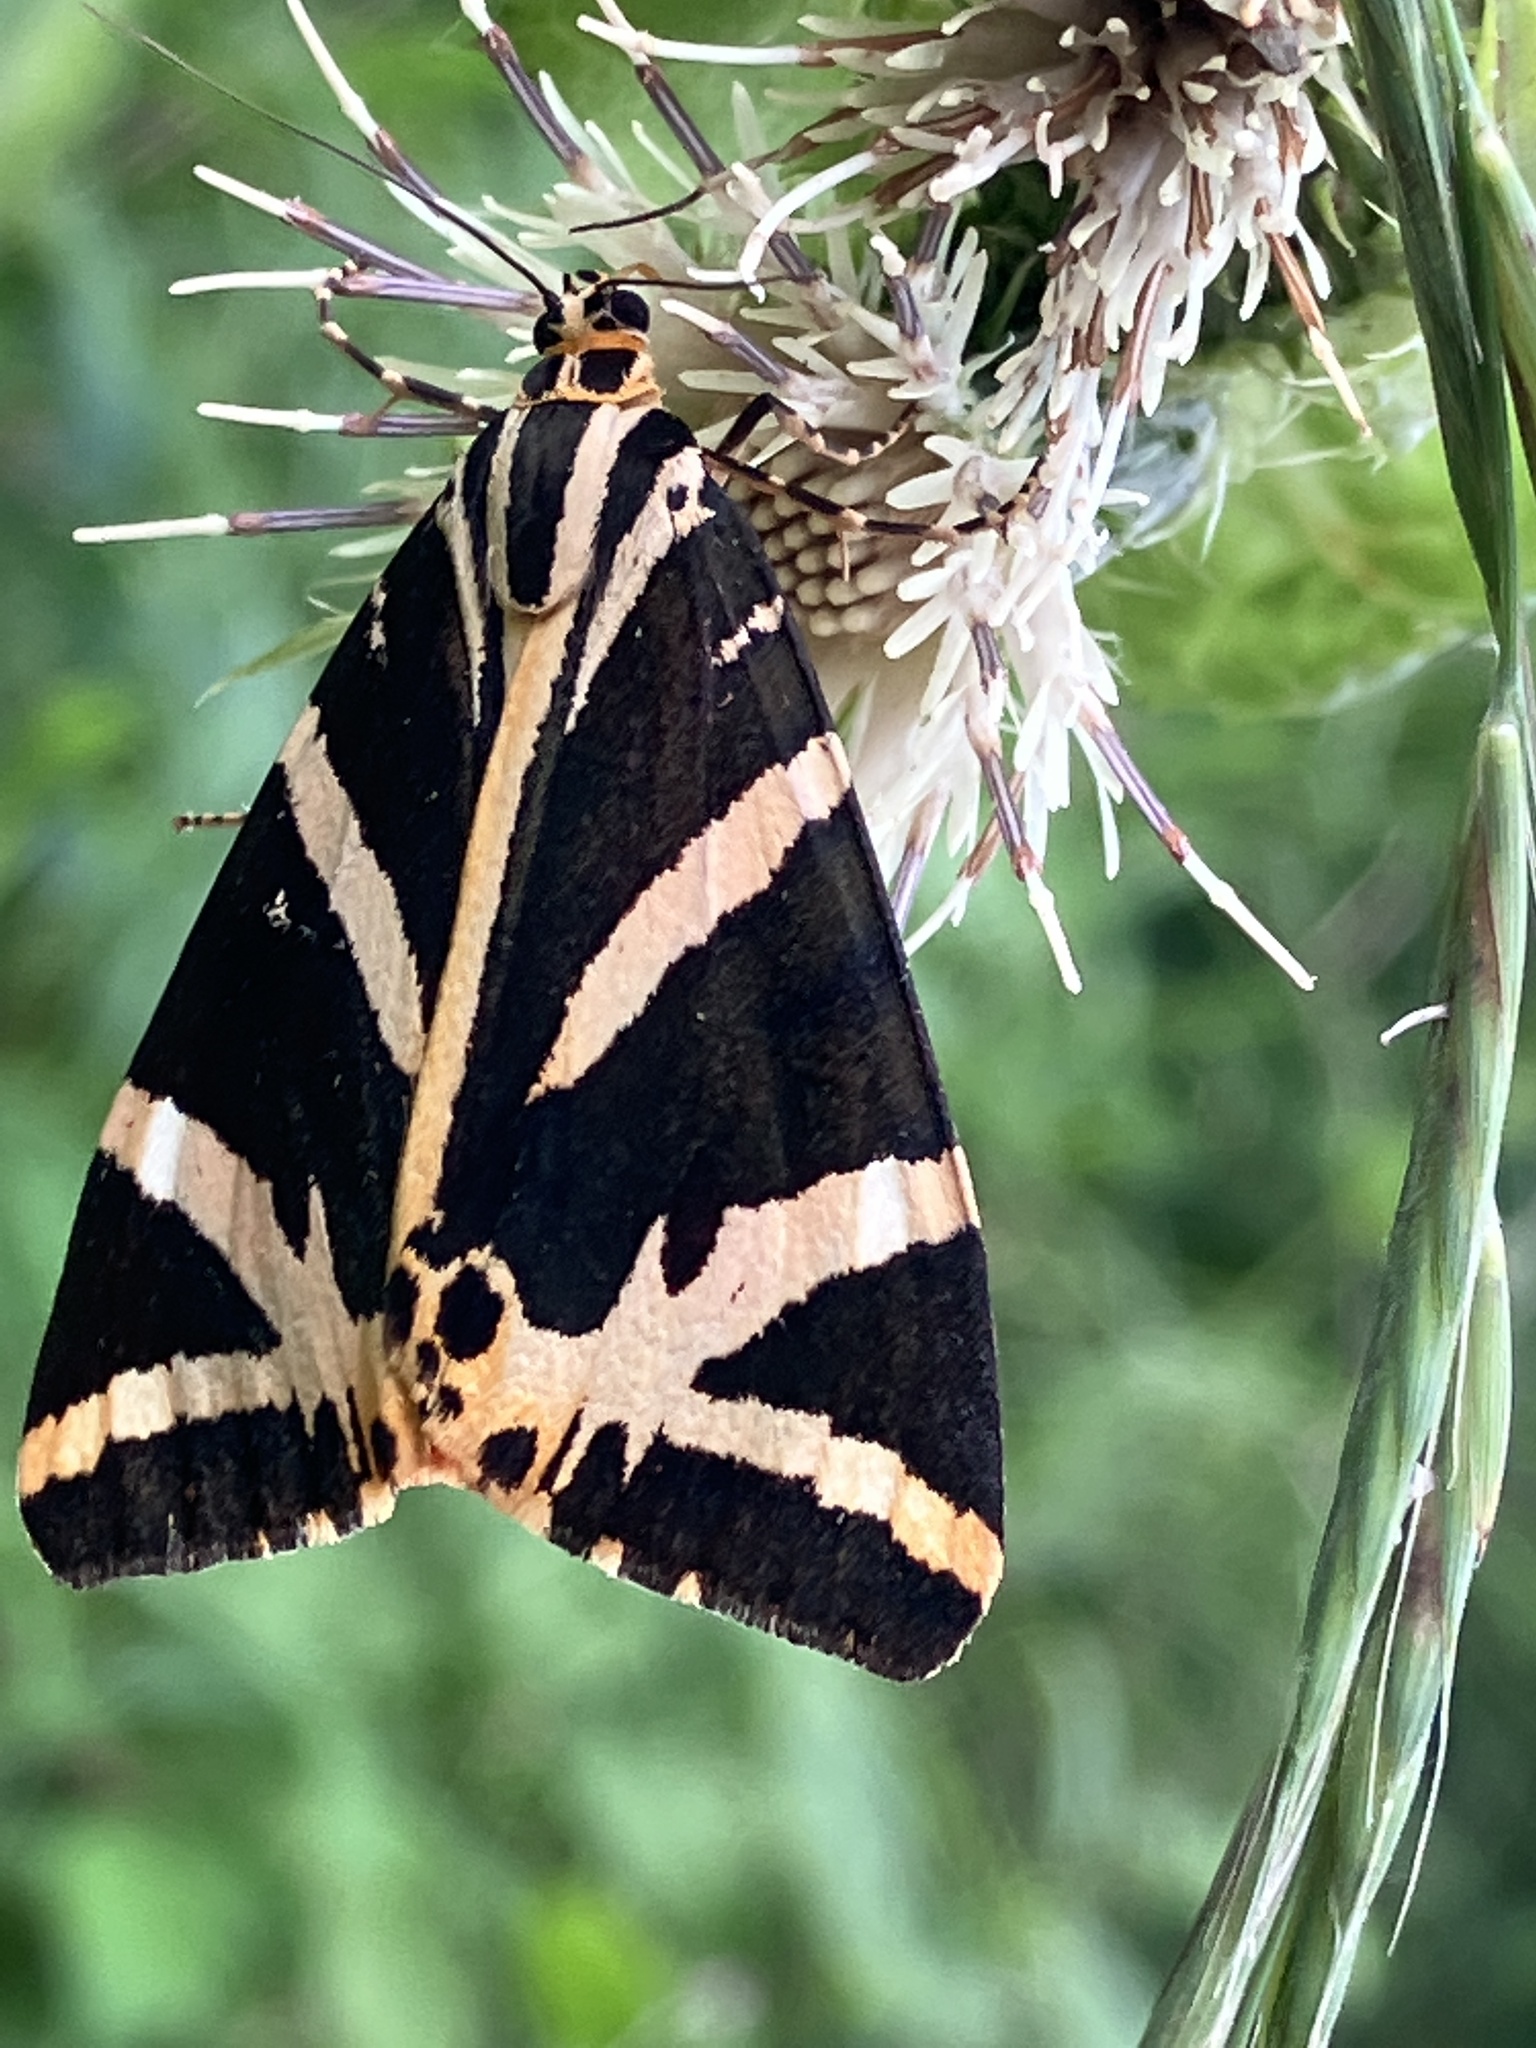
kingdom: Animalia
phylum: Arthropoda
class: Insecta
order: Lepidoptera
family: Erebidae
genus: Euplagia
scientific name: Euplagia quadripunctaria
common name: Jersey tiger
